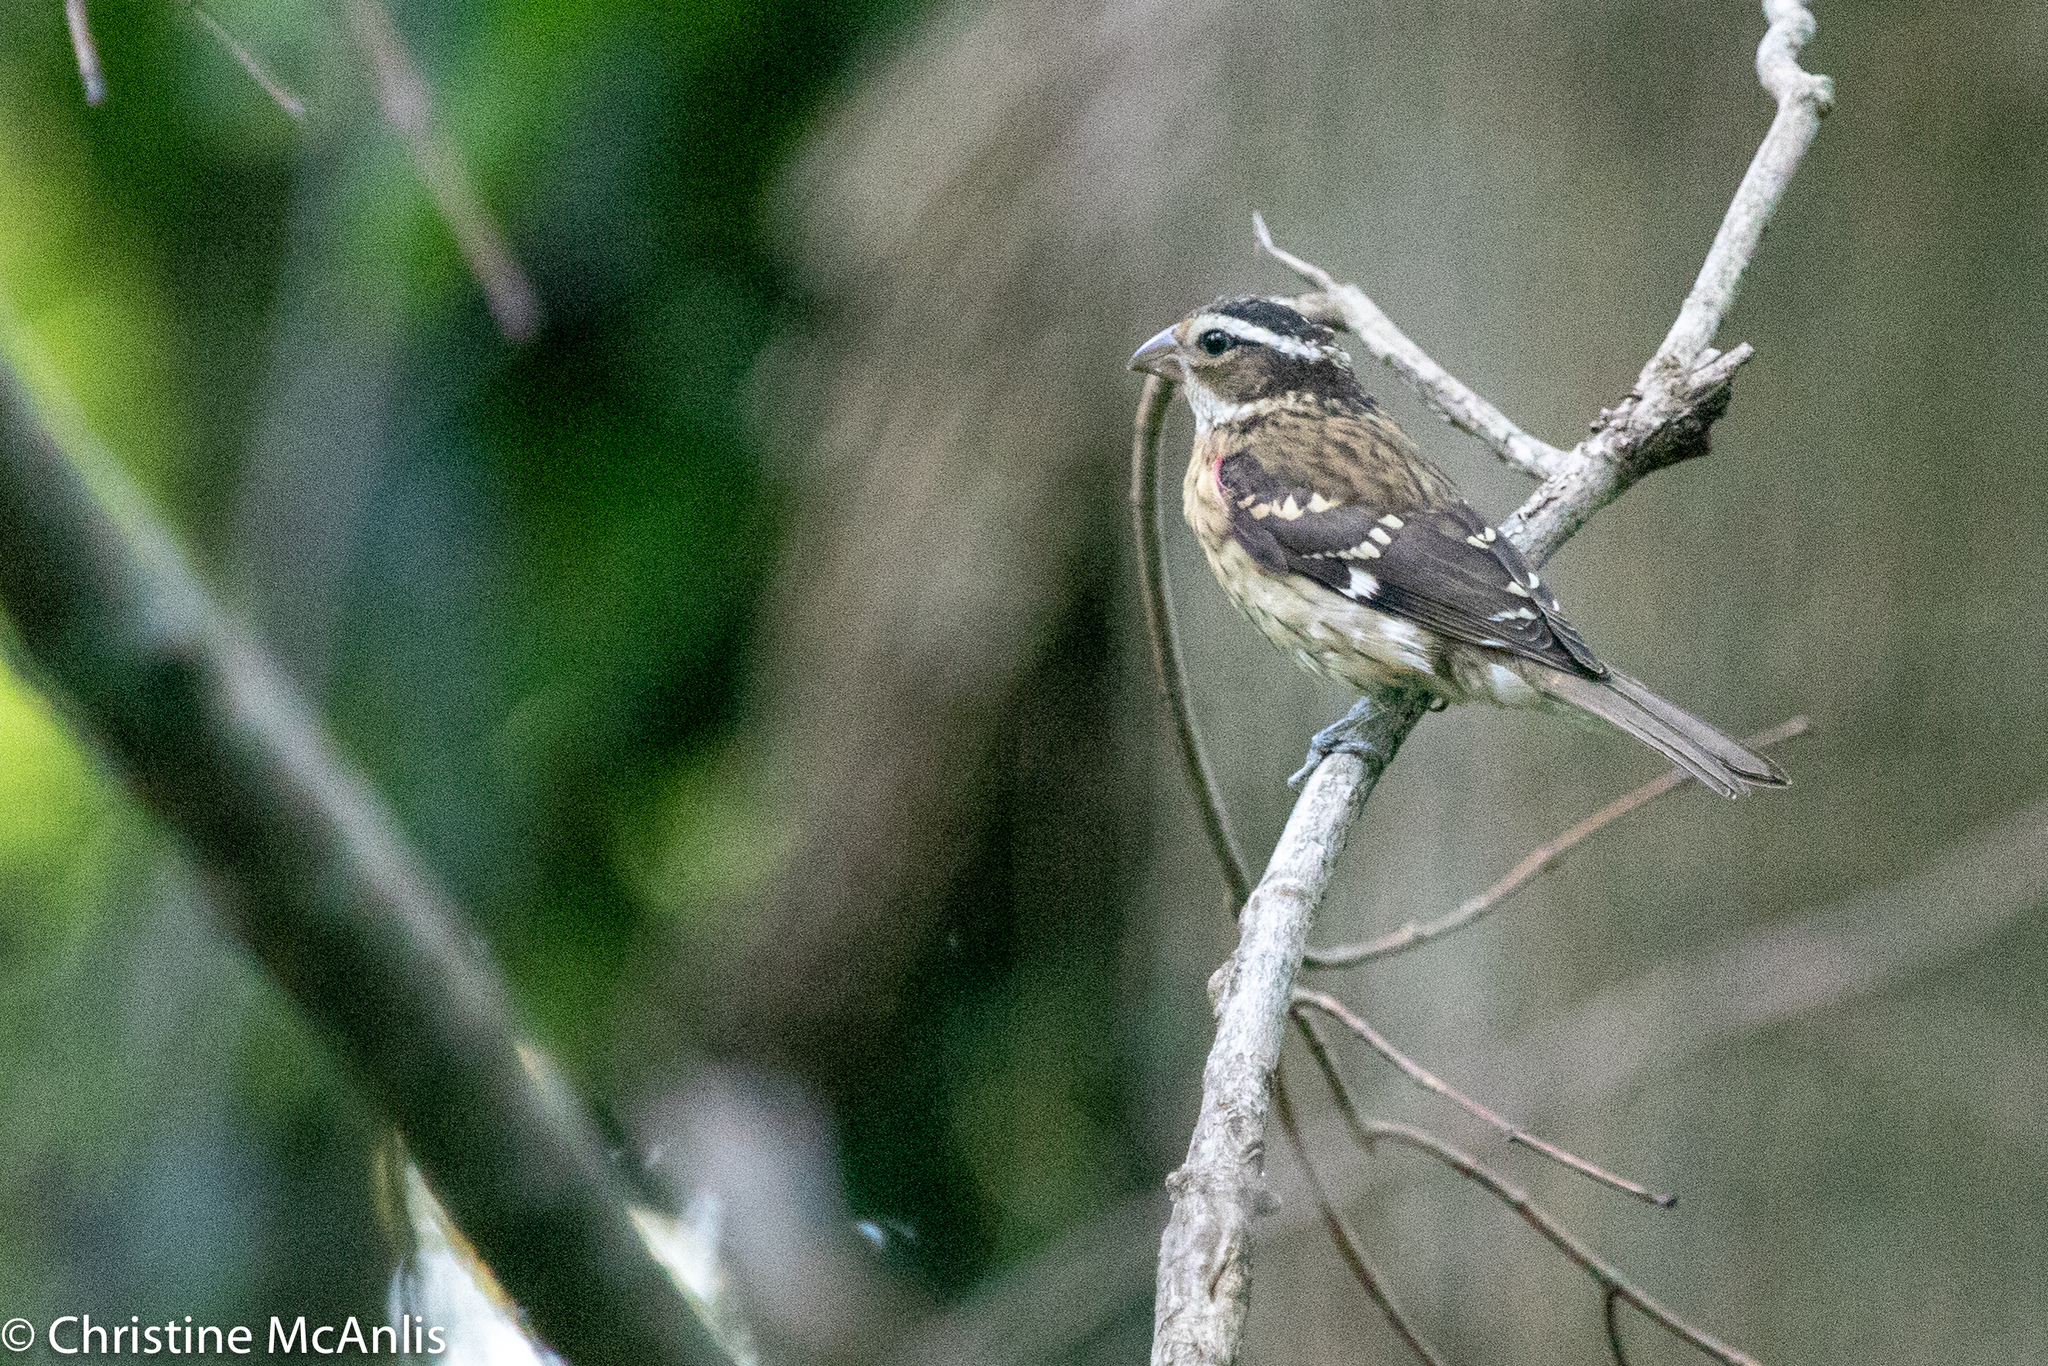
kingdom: Animalia
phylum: Chordata
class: Aves
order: Passeriformes
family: Cardinalidae
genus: Pheucticus
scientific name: Pheucticus ludovicianus
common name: Rose-breasted grosbeak
